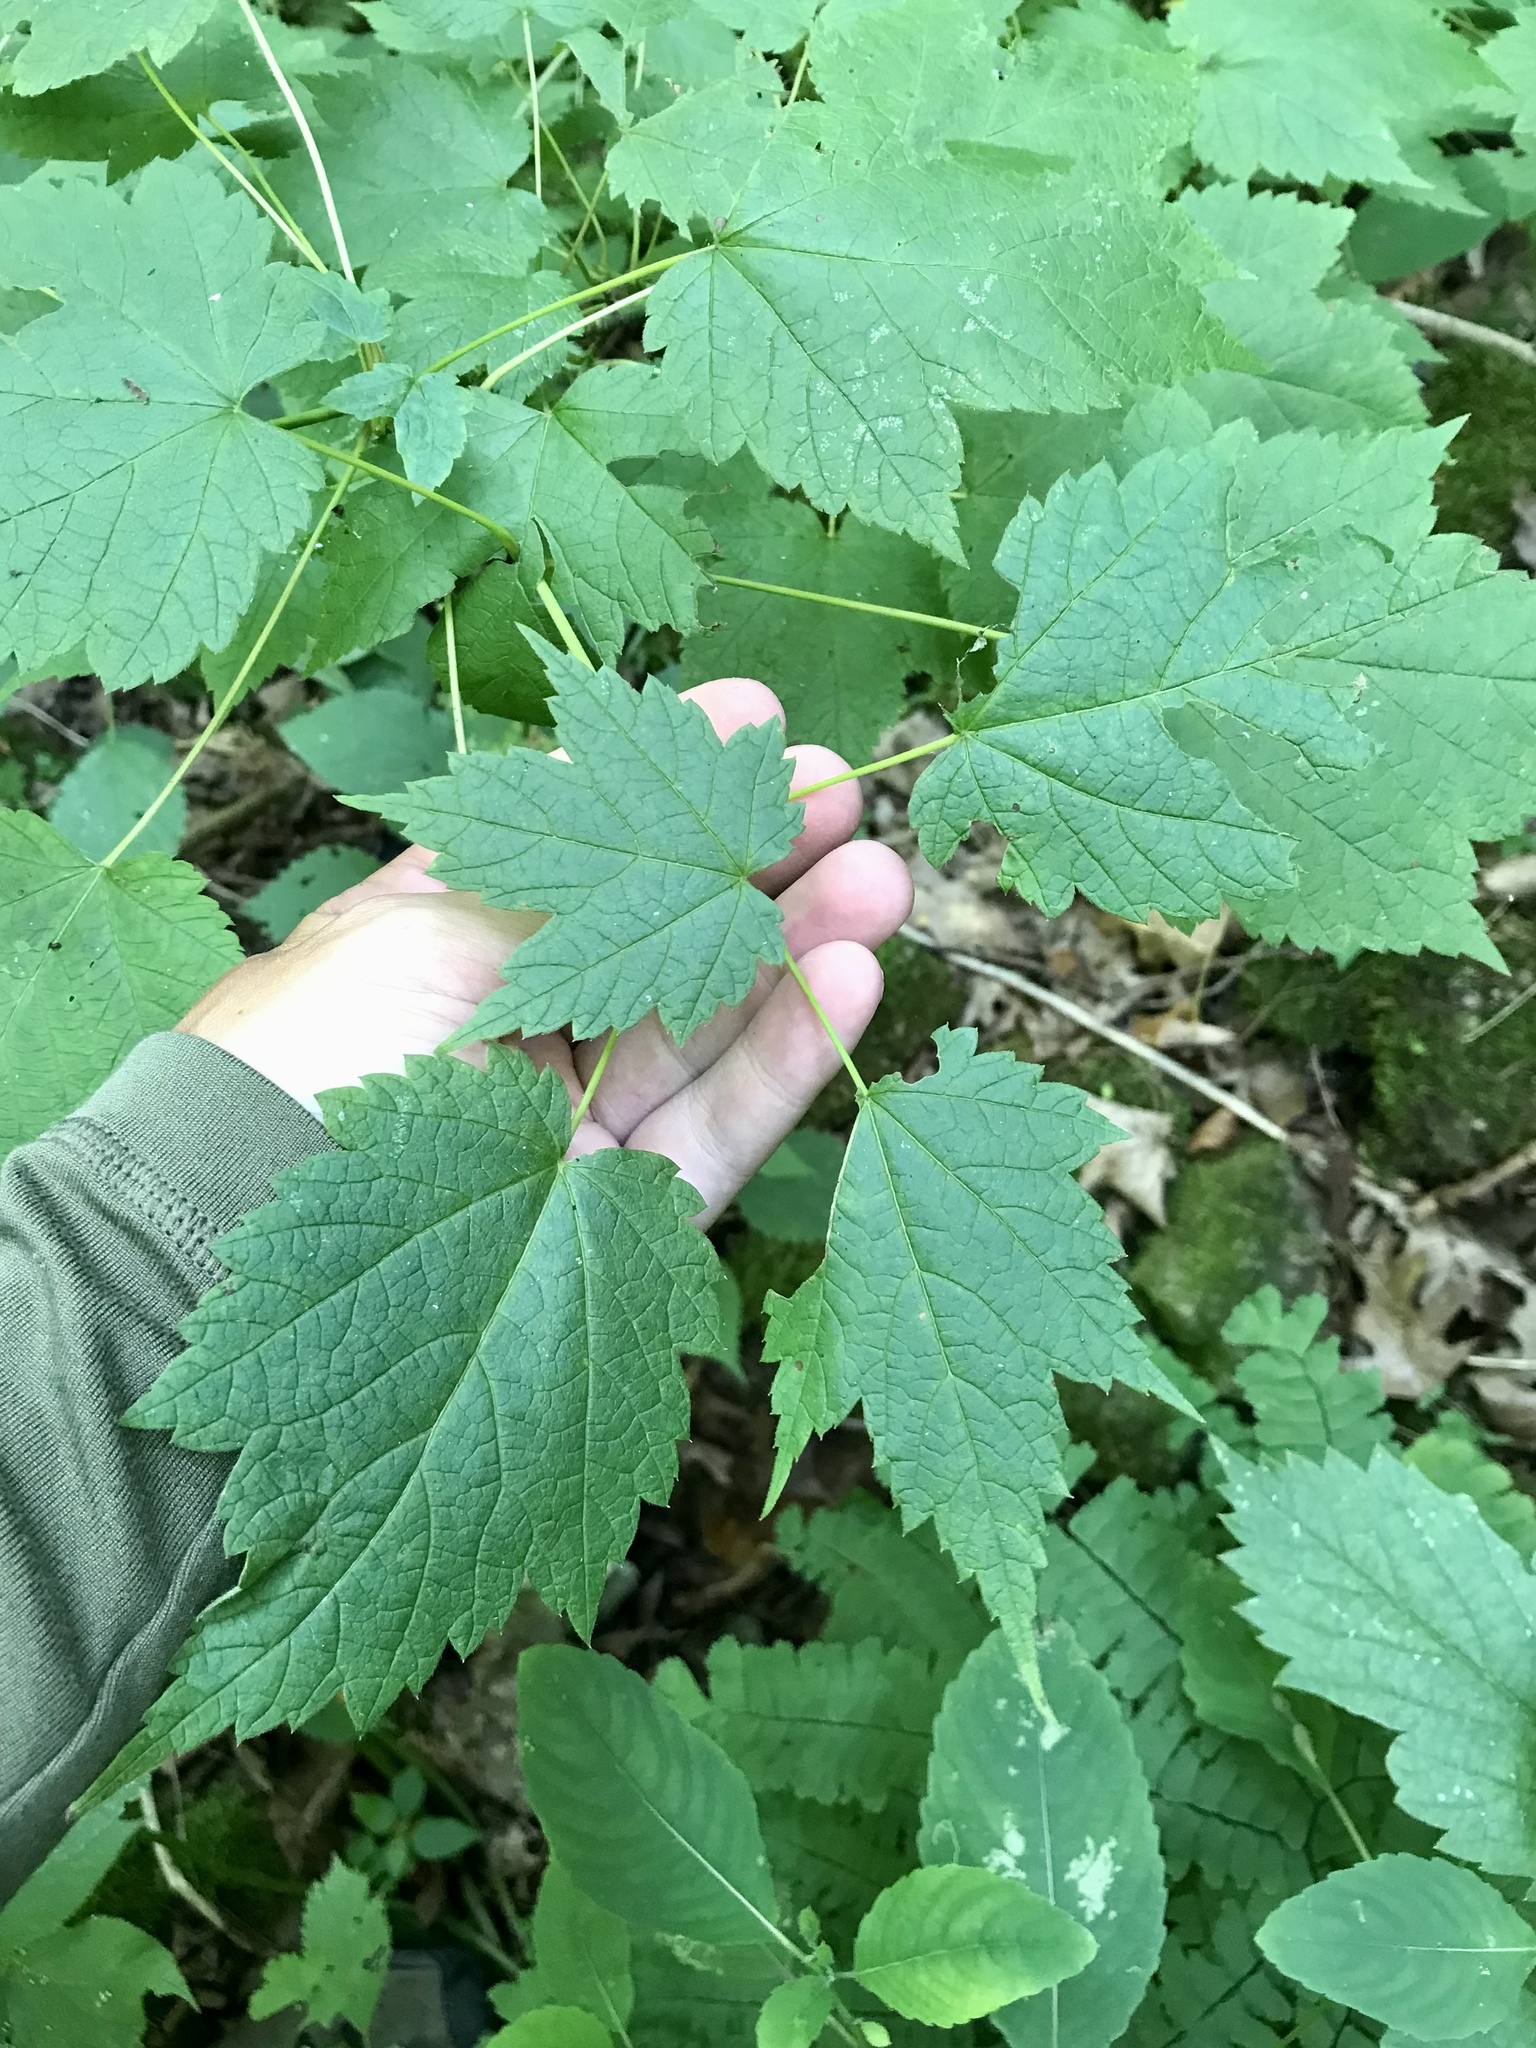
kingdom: Plantae
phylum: Tracheophyta
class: Magnoliopsida
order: Sapindales
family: Sapindaceae
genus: Acer
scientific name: Acer spicatum
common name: Mountain maple
